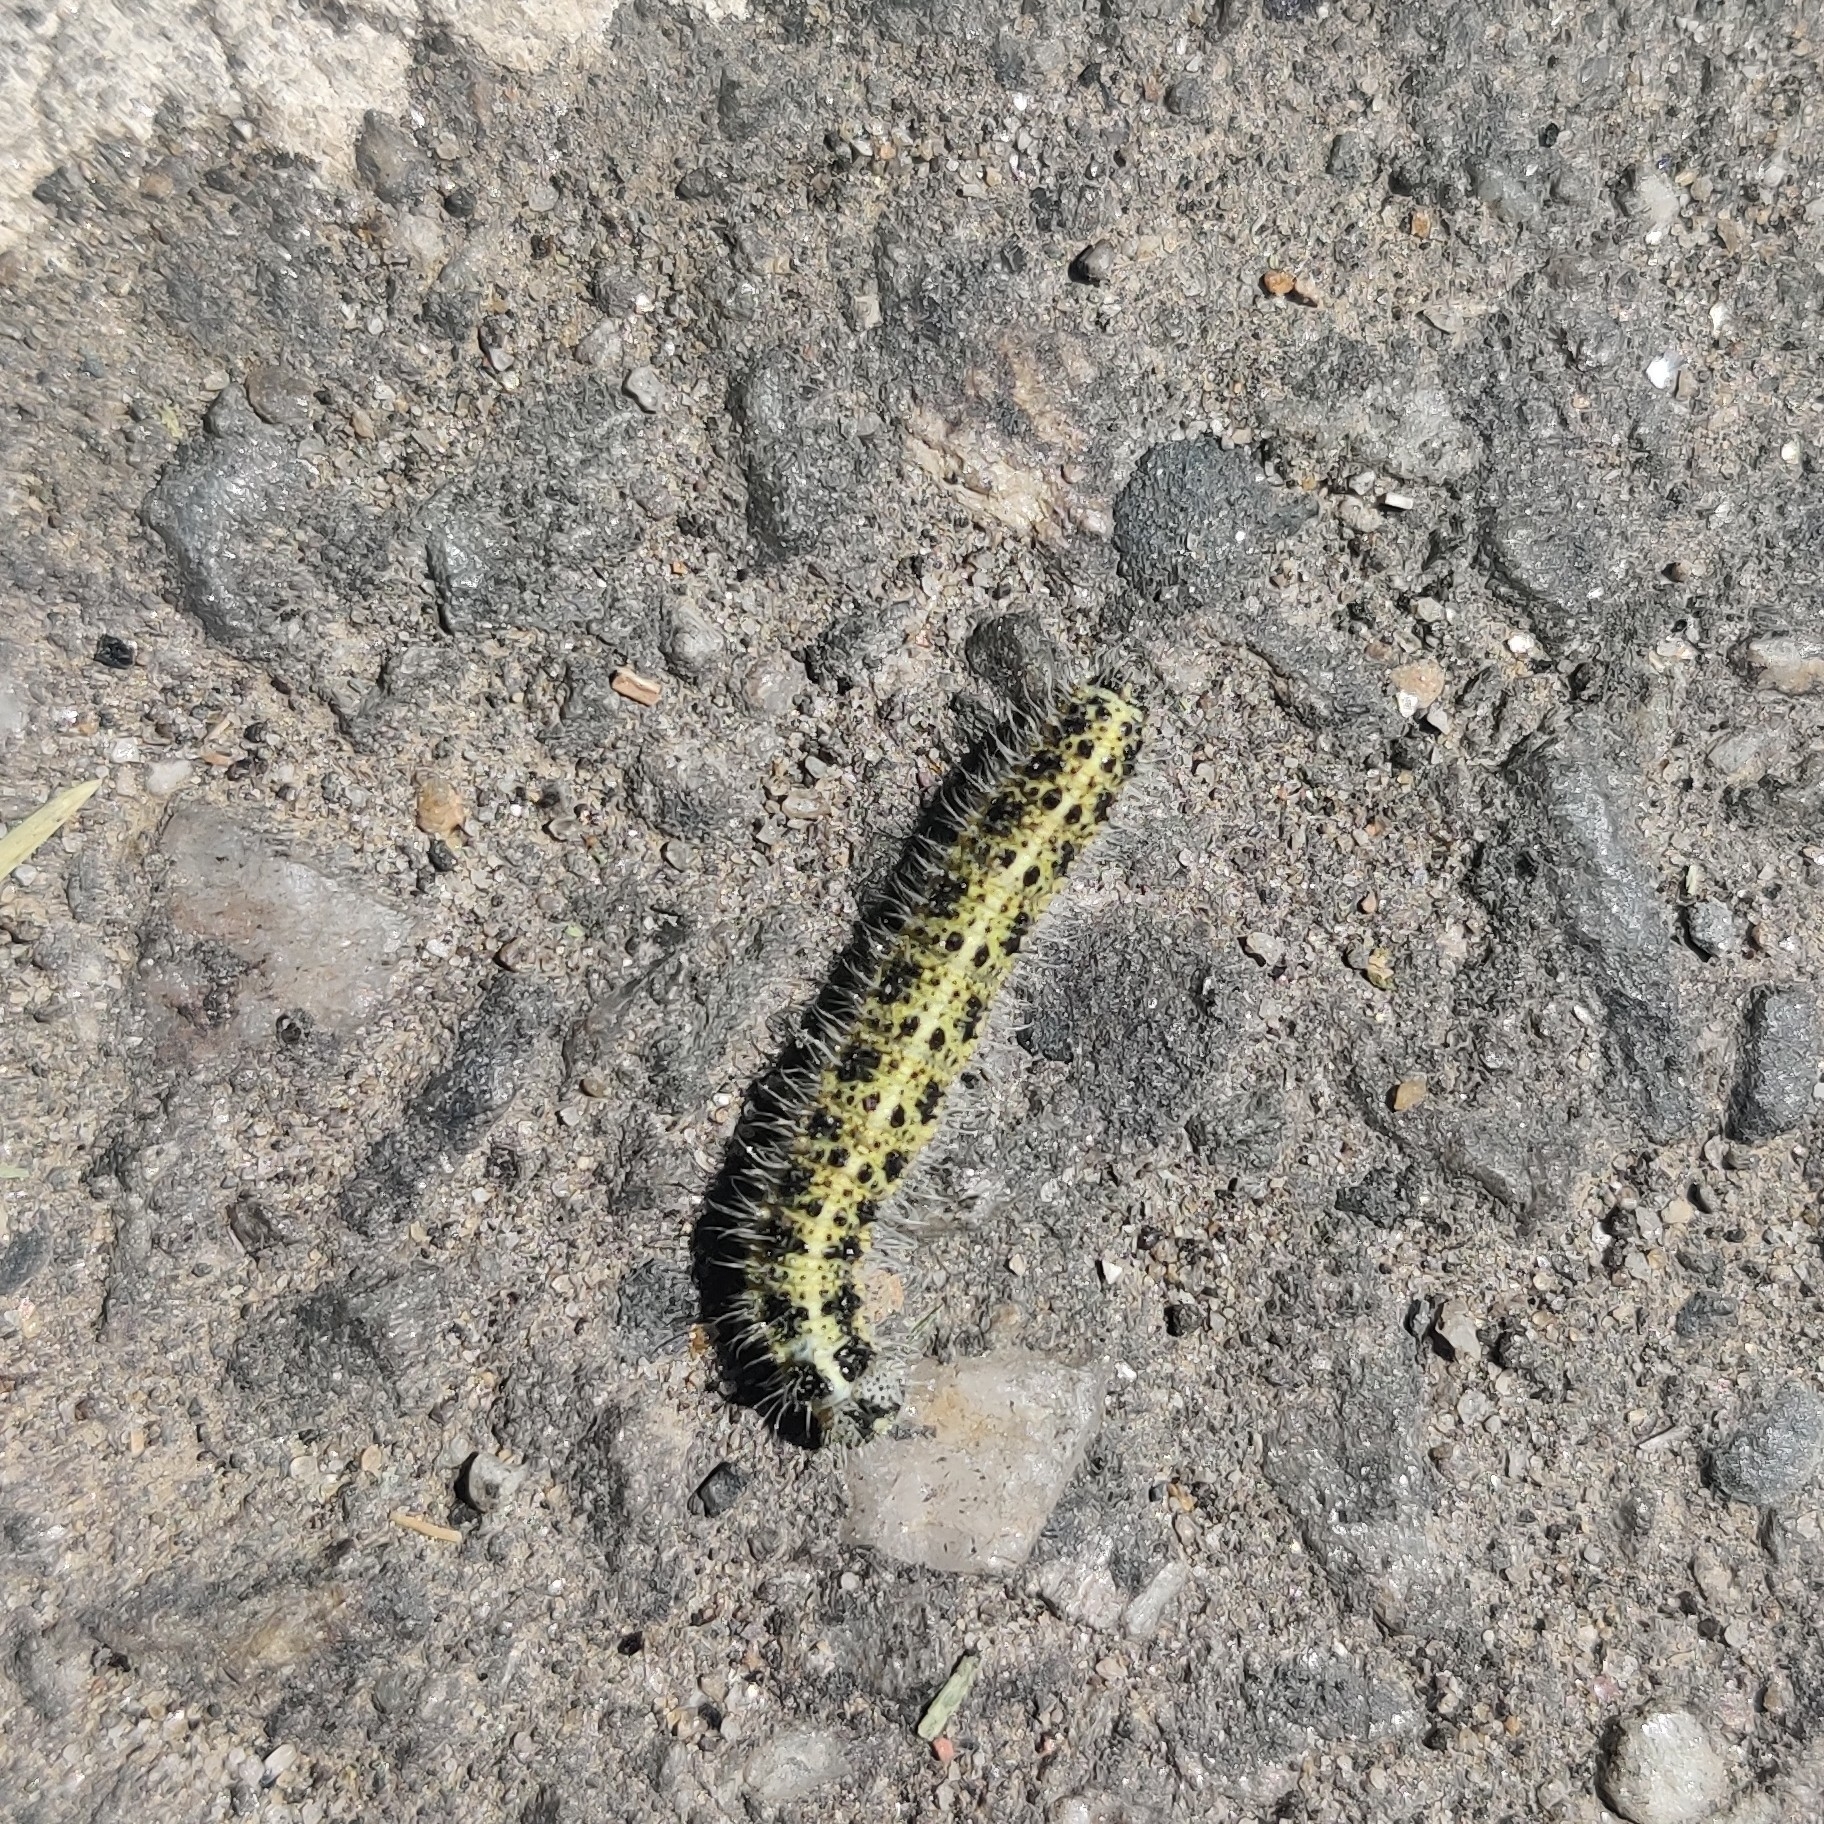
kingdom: Animalia
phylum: Arthropoda
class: Insecta
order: Lepidoptera
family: Pieridae
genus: Pieris
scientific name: Pieris brassicae
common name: Large white
